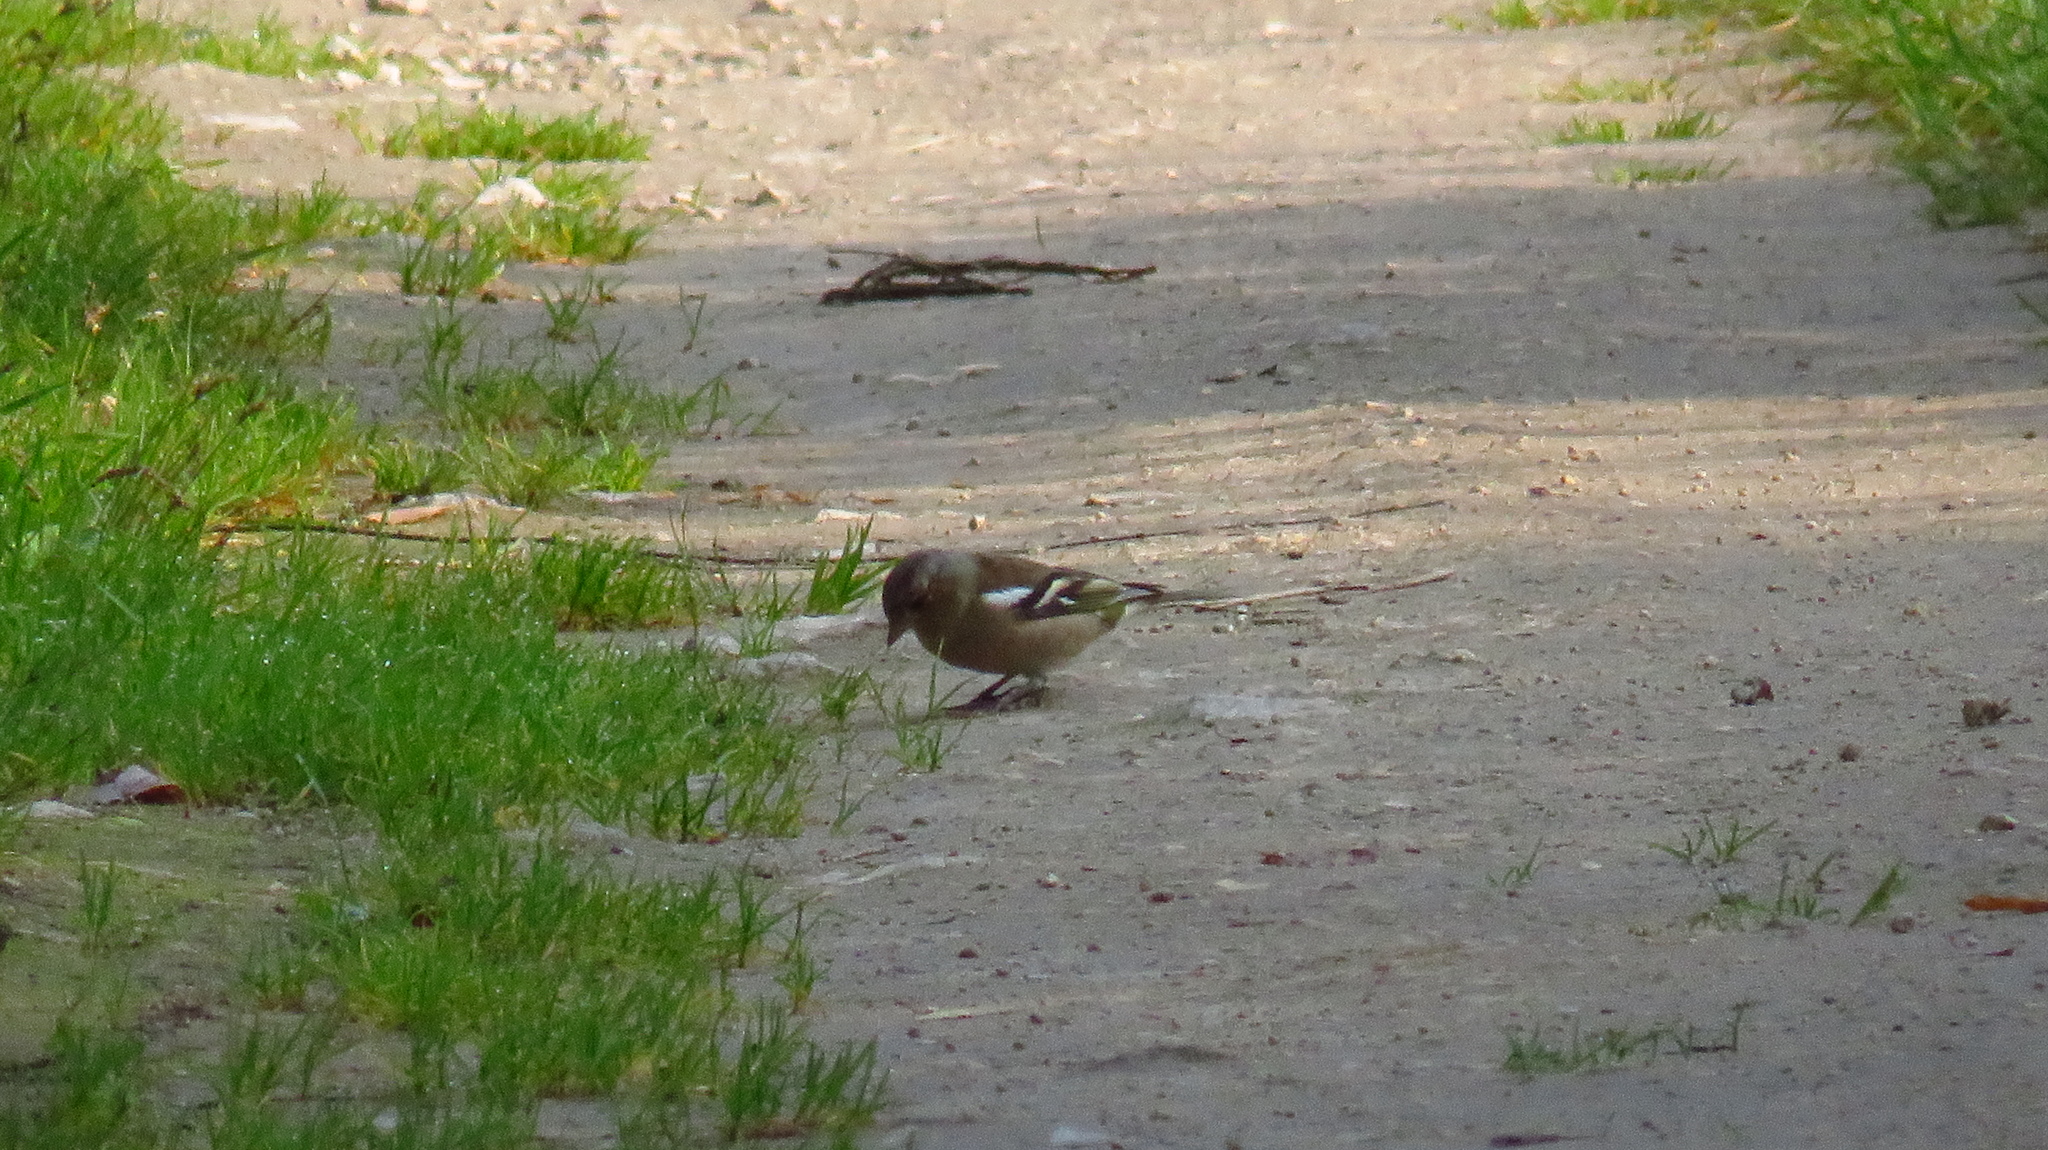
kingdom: Animalia
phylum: Chordata
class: Aves
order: Passeriformes
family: Fringillidae
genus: Fringilla
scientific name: Fringilla coelebs
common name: Common chaffinch
